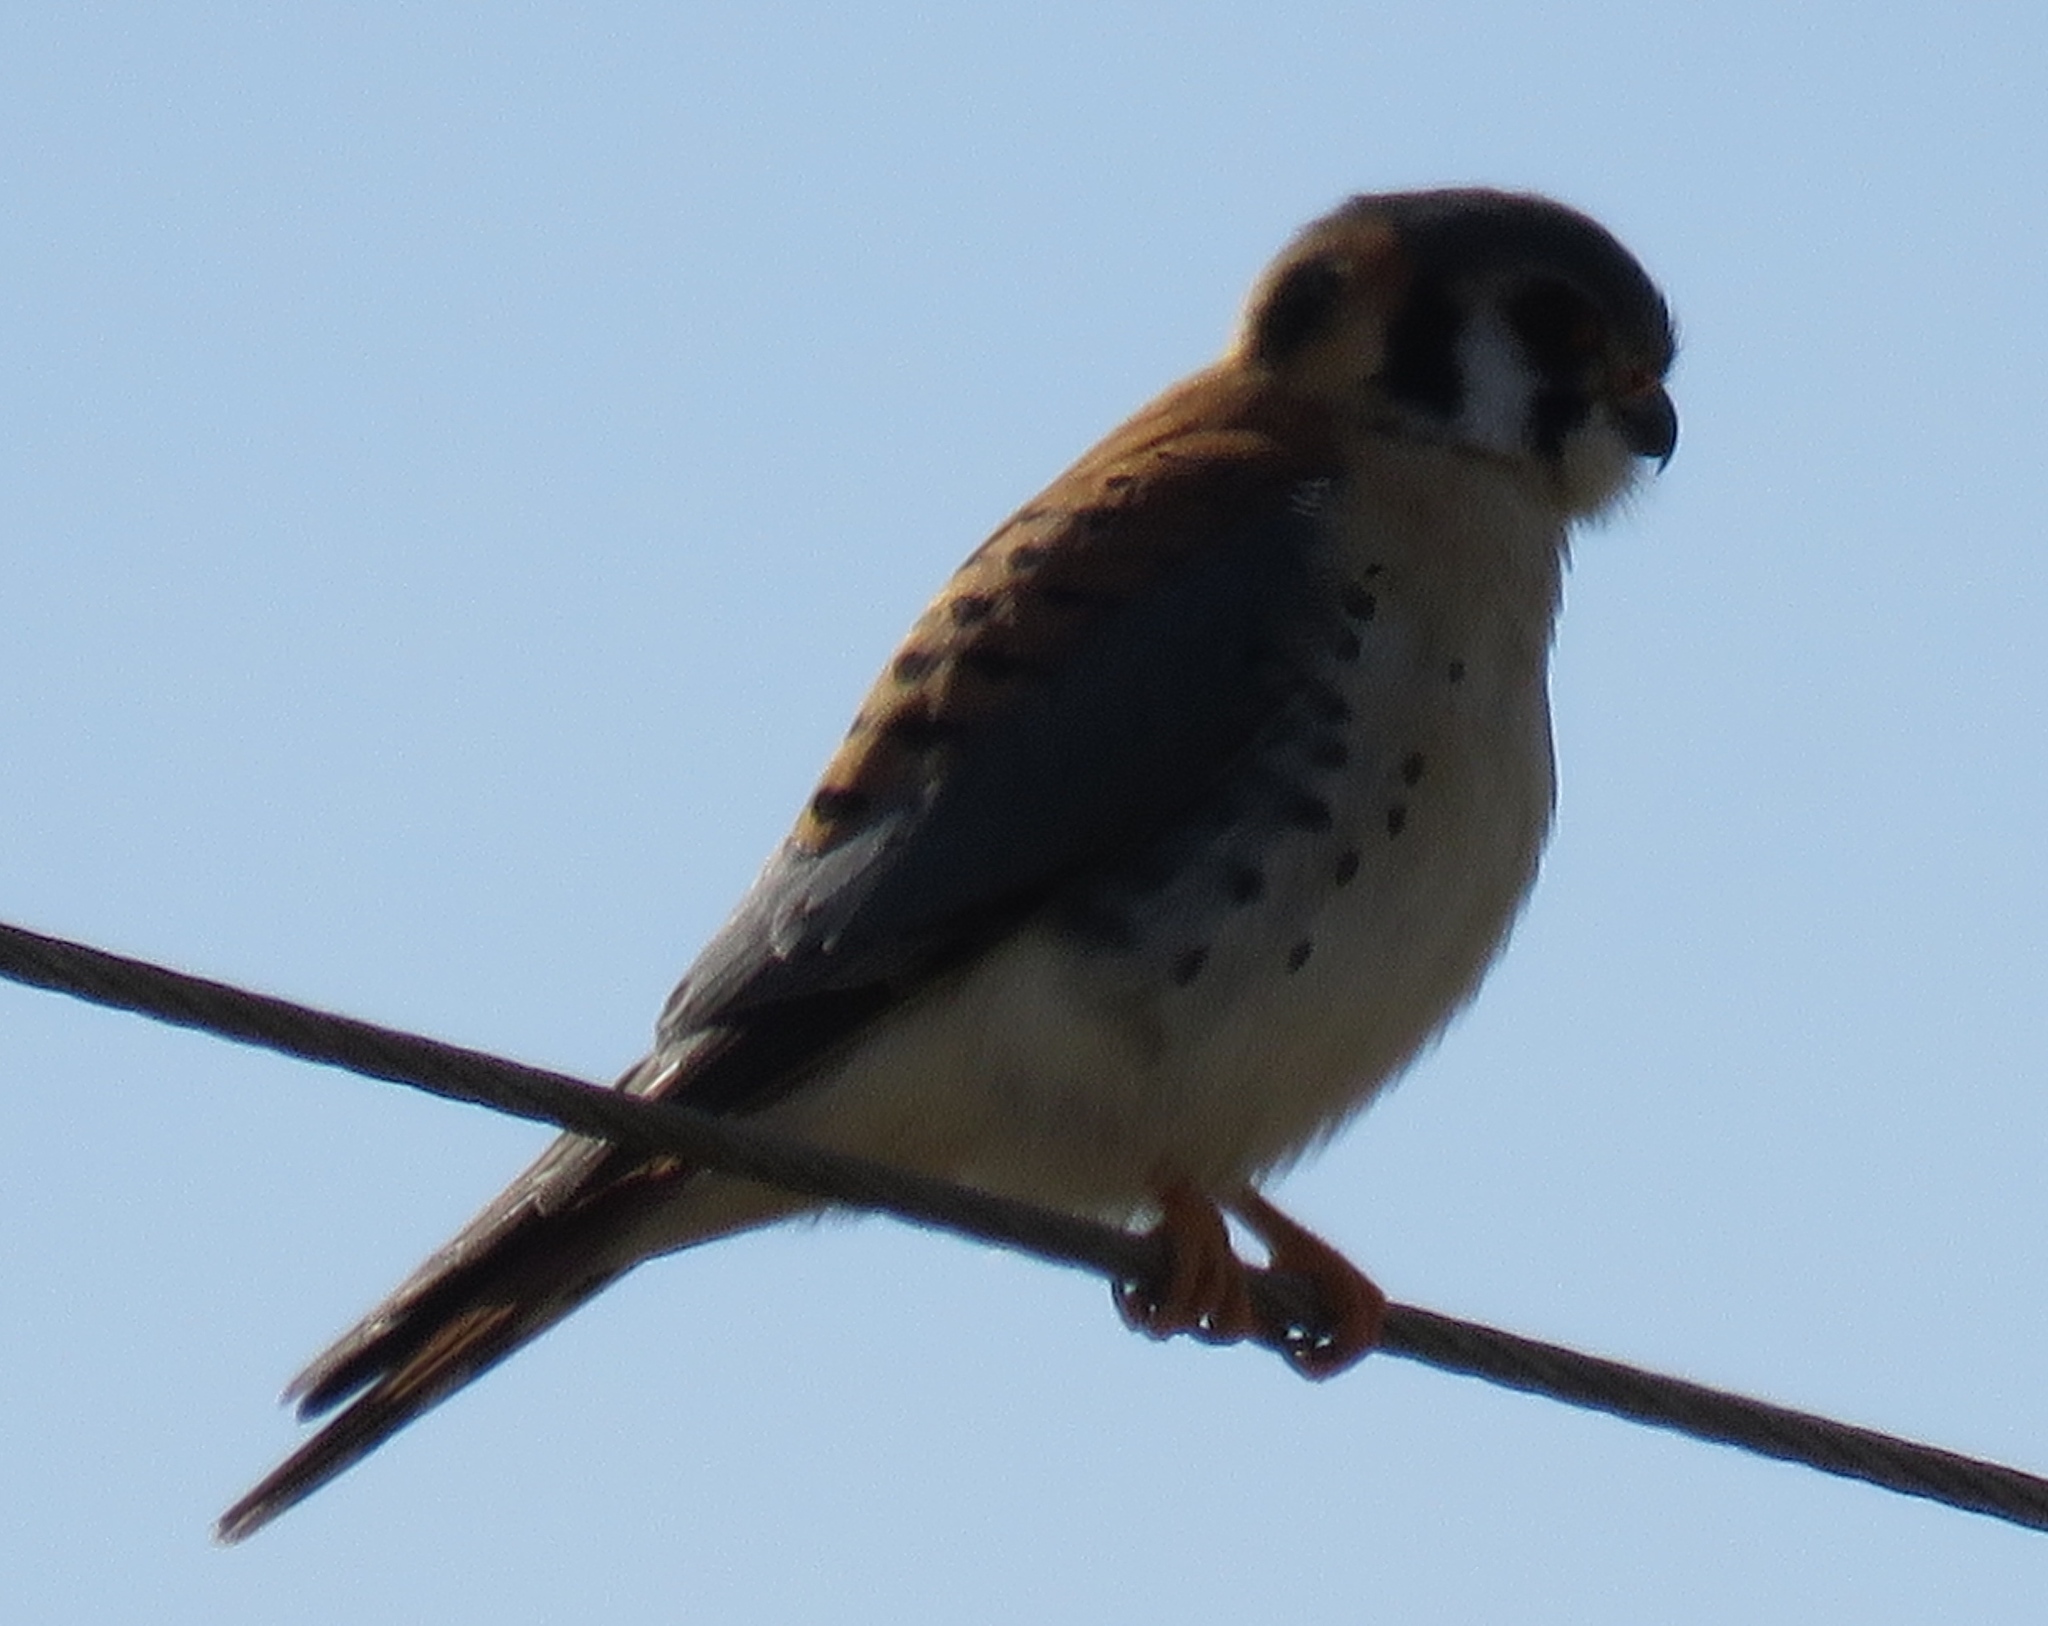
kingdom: Animalia
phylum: Chordata
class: Aves
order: Falconiformes
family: Falconidae
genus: Falco
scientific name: Falco sparverius
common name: American kestrel
